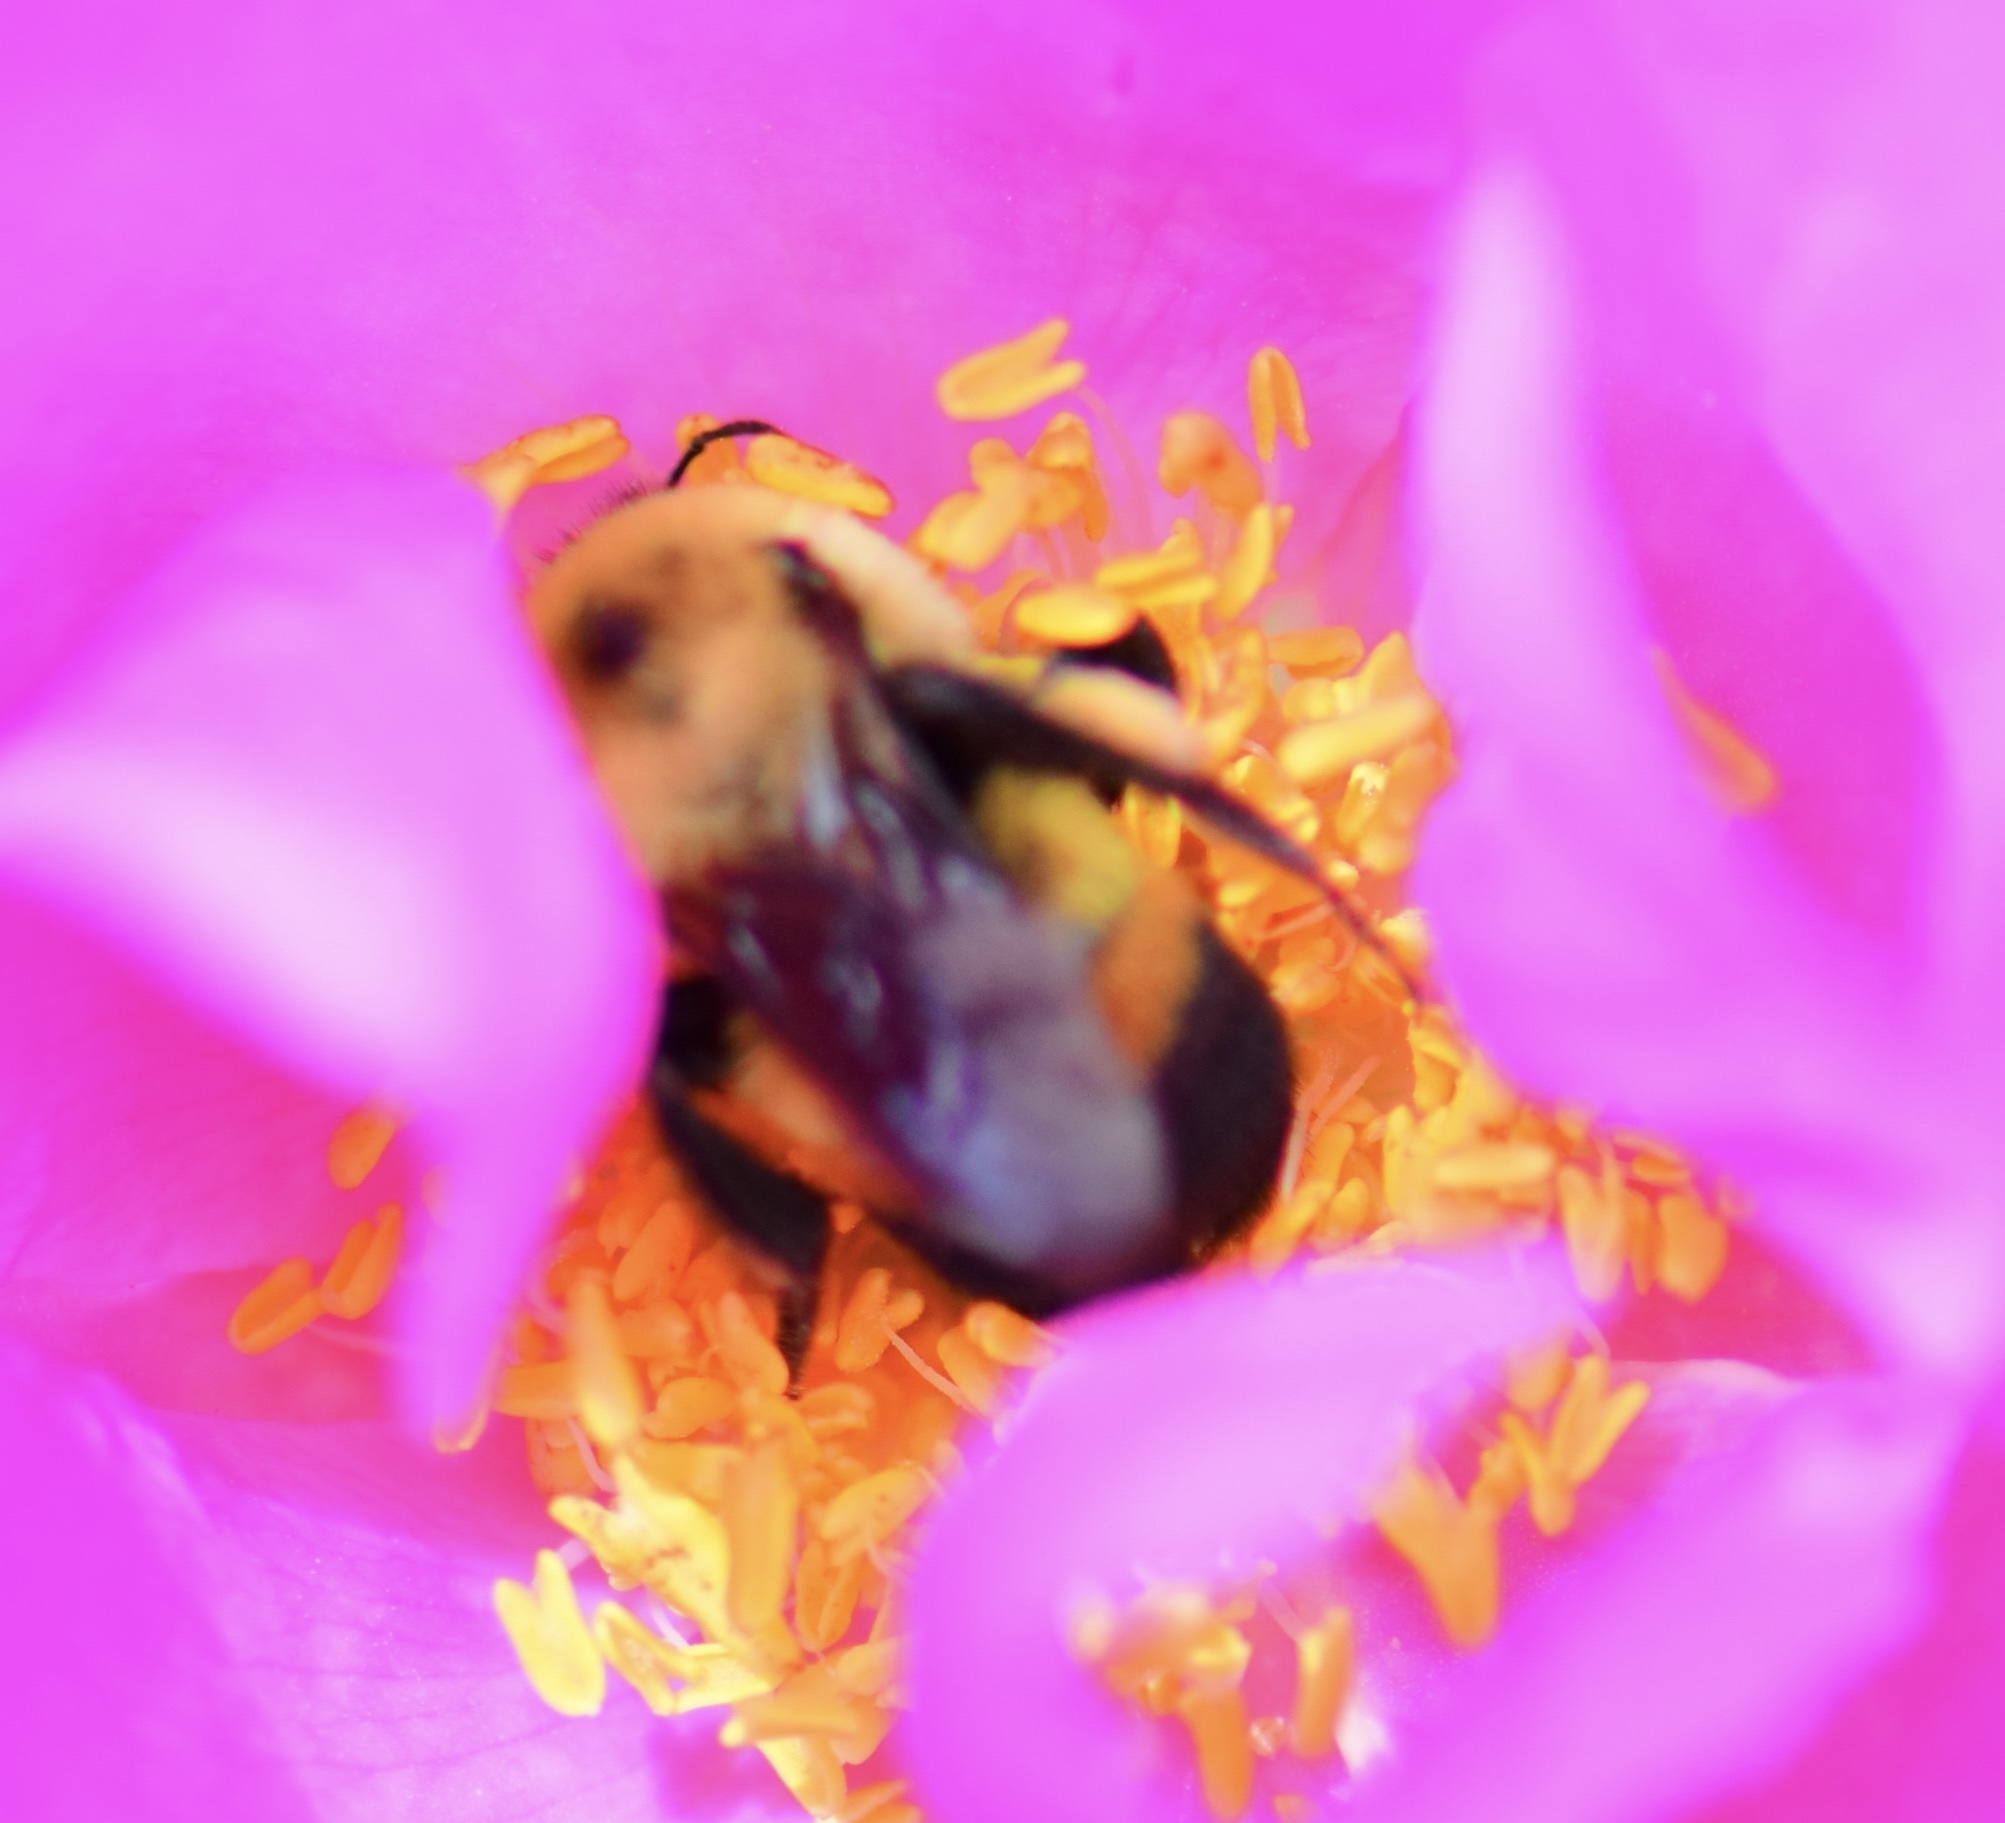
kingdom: Animalia
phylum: Arthropoda
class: Insecta
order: Hymenoptera
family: Apidae
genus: Bombus
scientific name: Bombus griseocollis
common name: Brown-belted bumble bee
